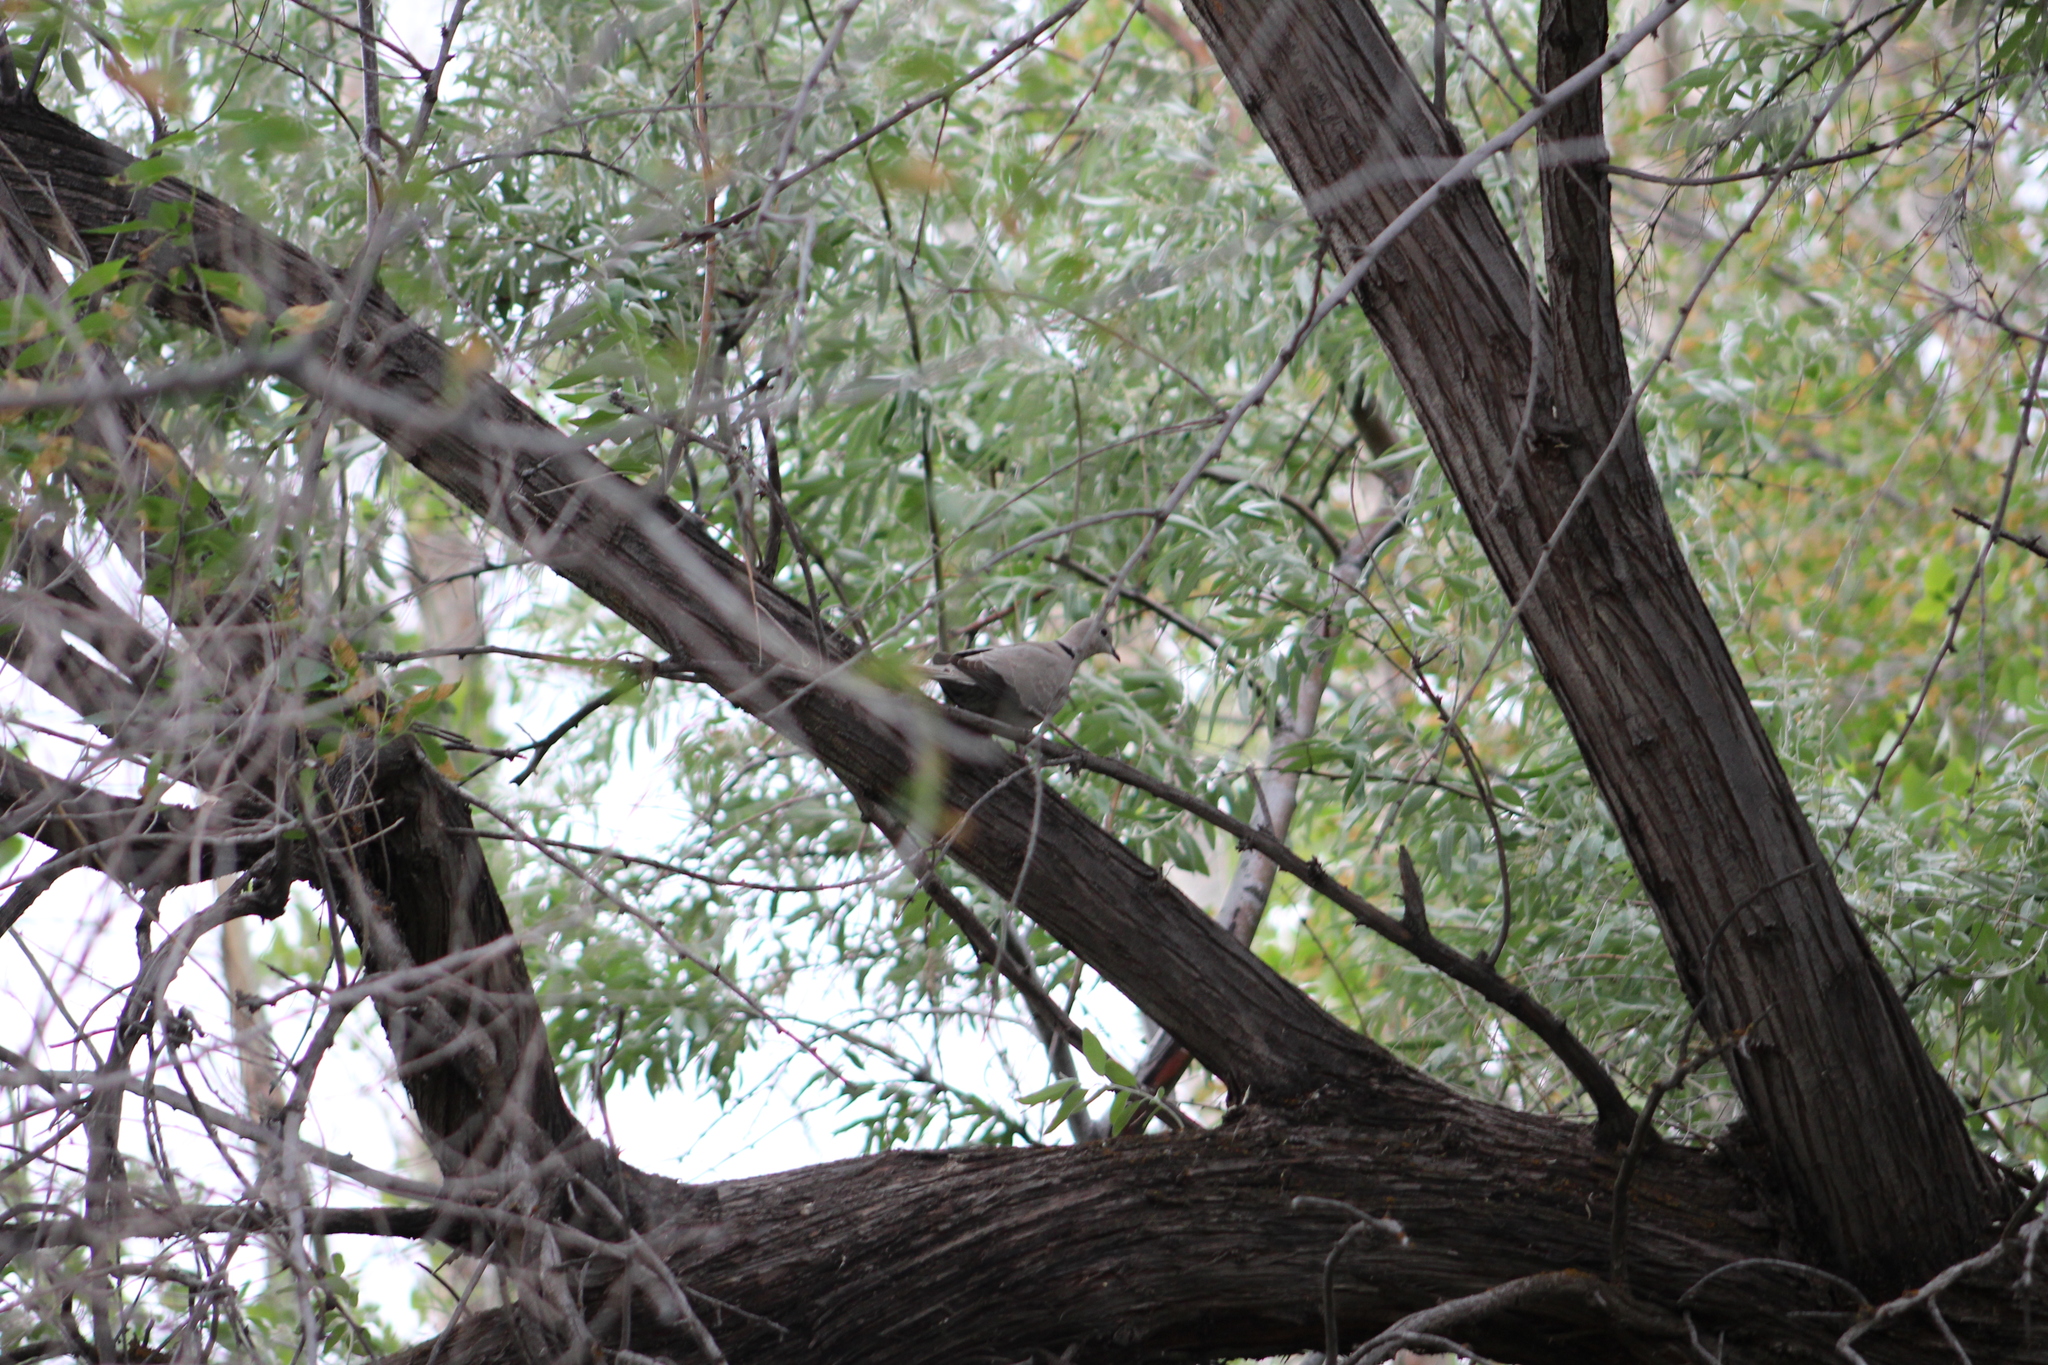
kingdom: Animalia
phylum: Chordata
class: Aves
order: Columbiformes
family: Columbidae
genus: Streptopelia
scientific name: Streptopelia decaocto
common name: Eurasian collared dove
